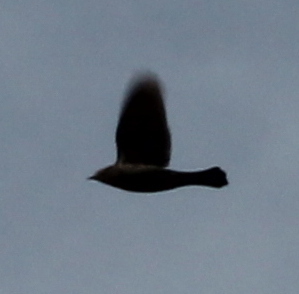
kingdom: Animalia
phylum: Chordata
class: Aves
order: Passeriformes
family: Icteridae
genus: Molothrus
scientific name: Molothrus ater
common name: Brown-headed cowbird
